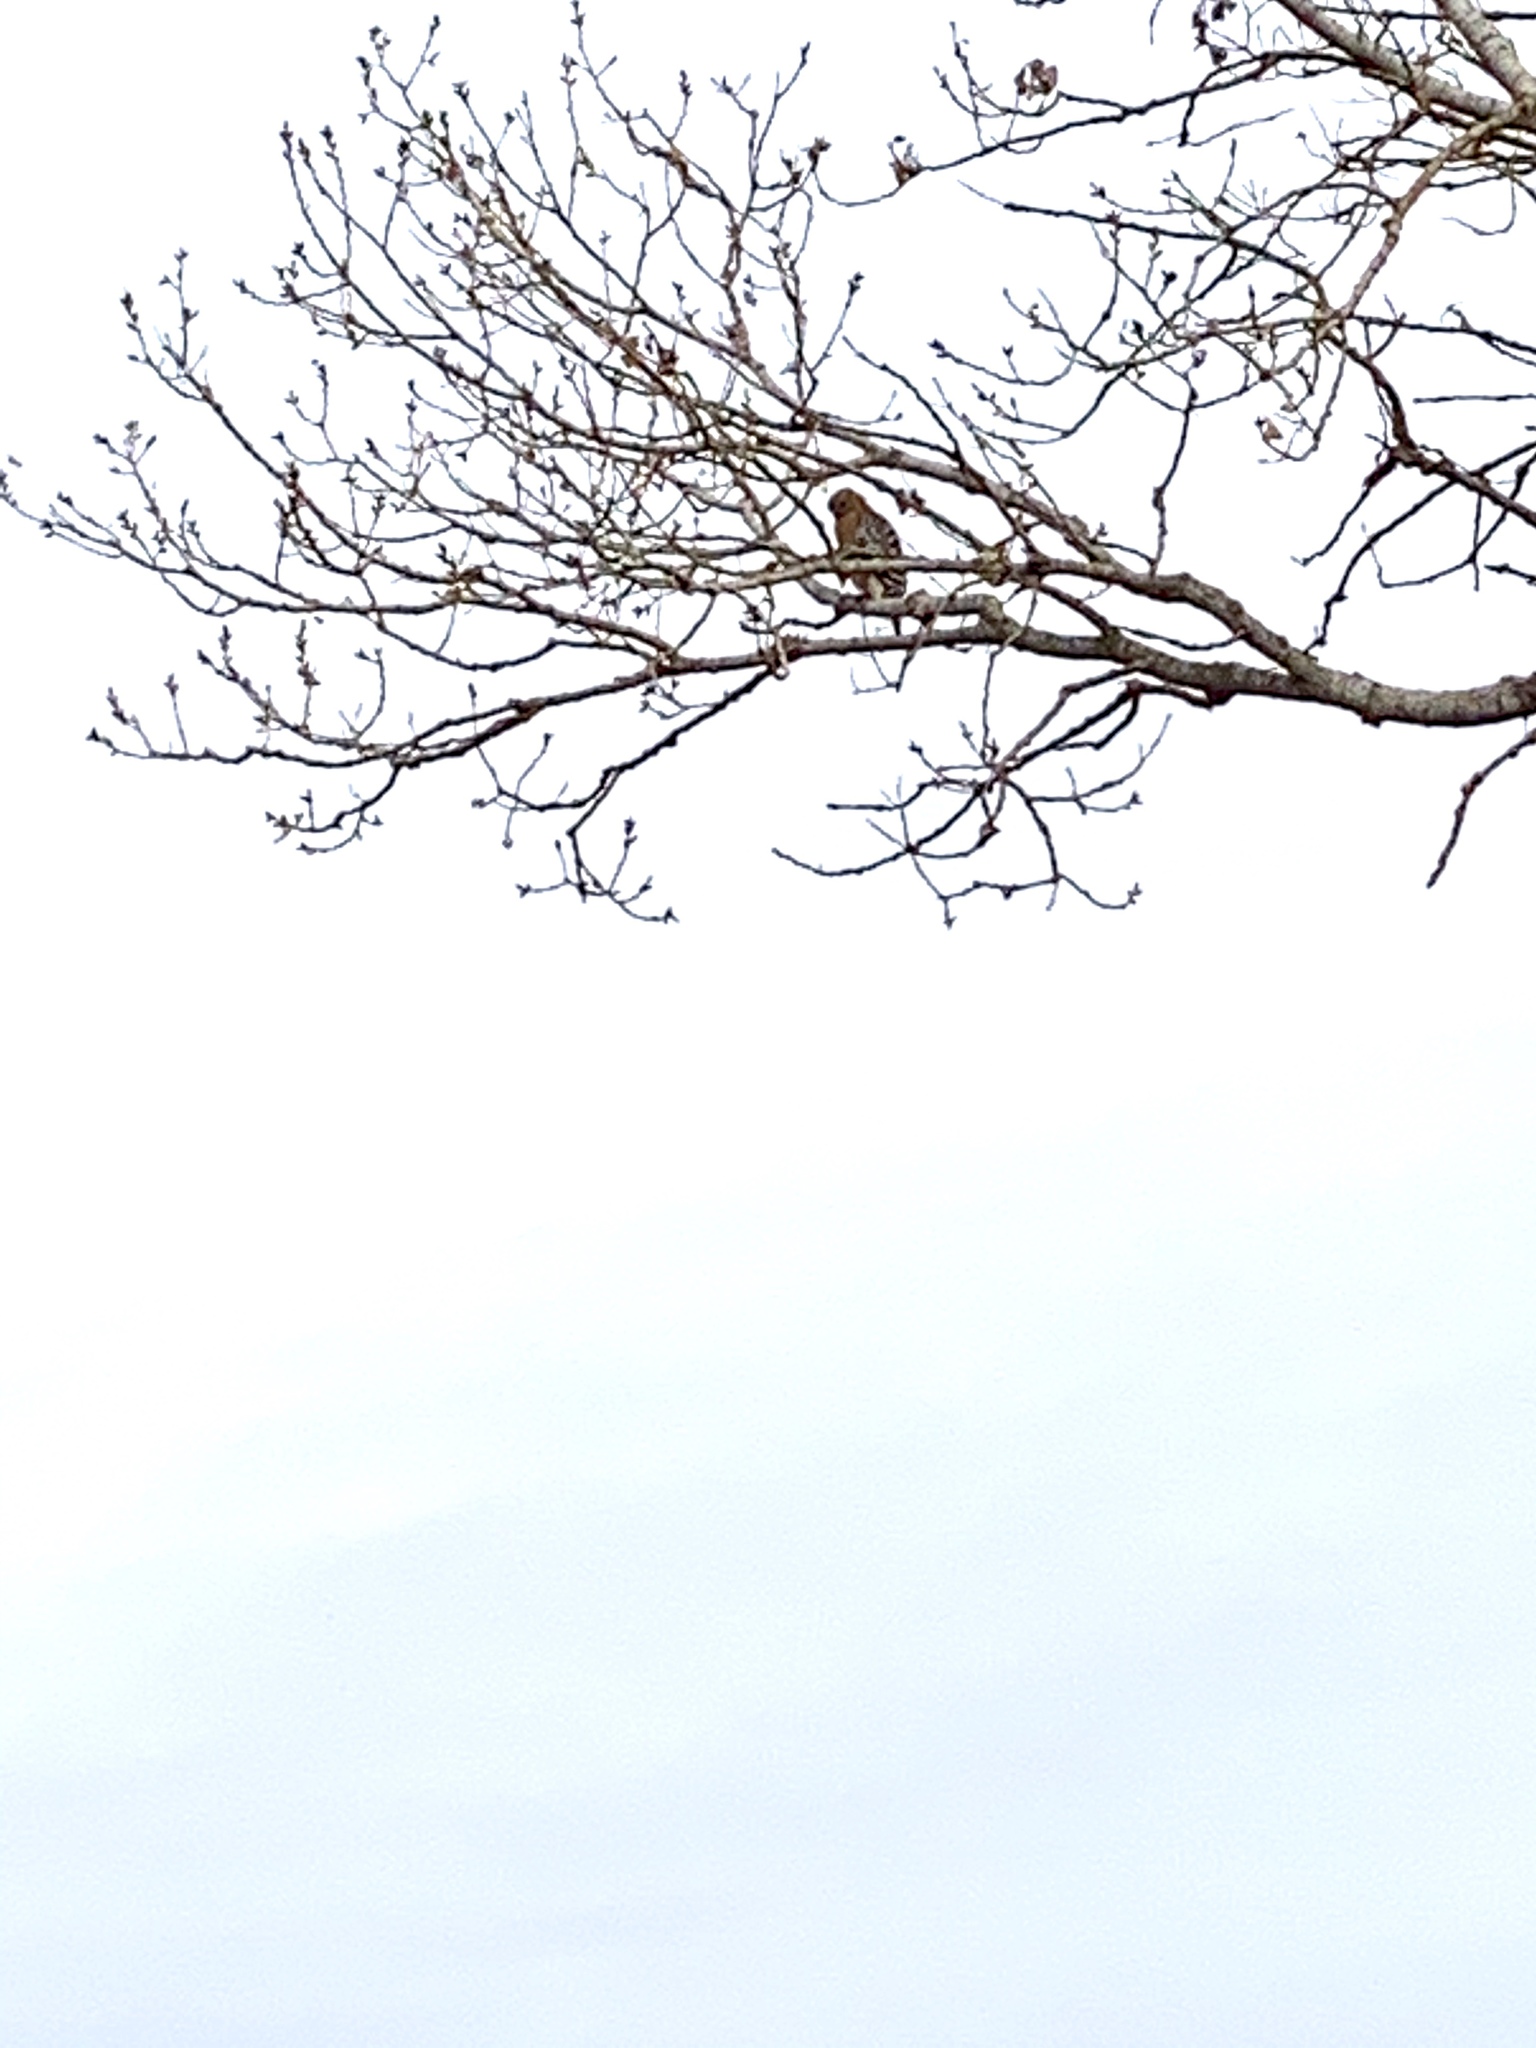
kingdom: Animalia
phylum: Chordata
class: Aves
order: Accipitriformes
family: Accipitridae
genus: Buteo
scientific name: Buteo lineatus
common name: Red-shouldered hawk
